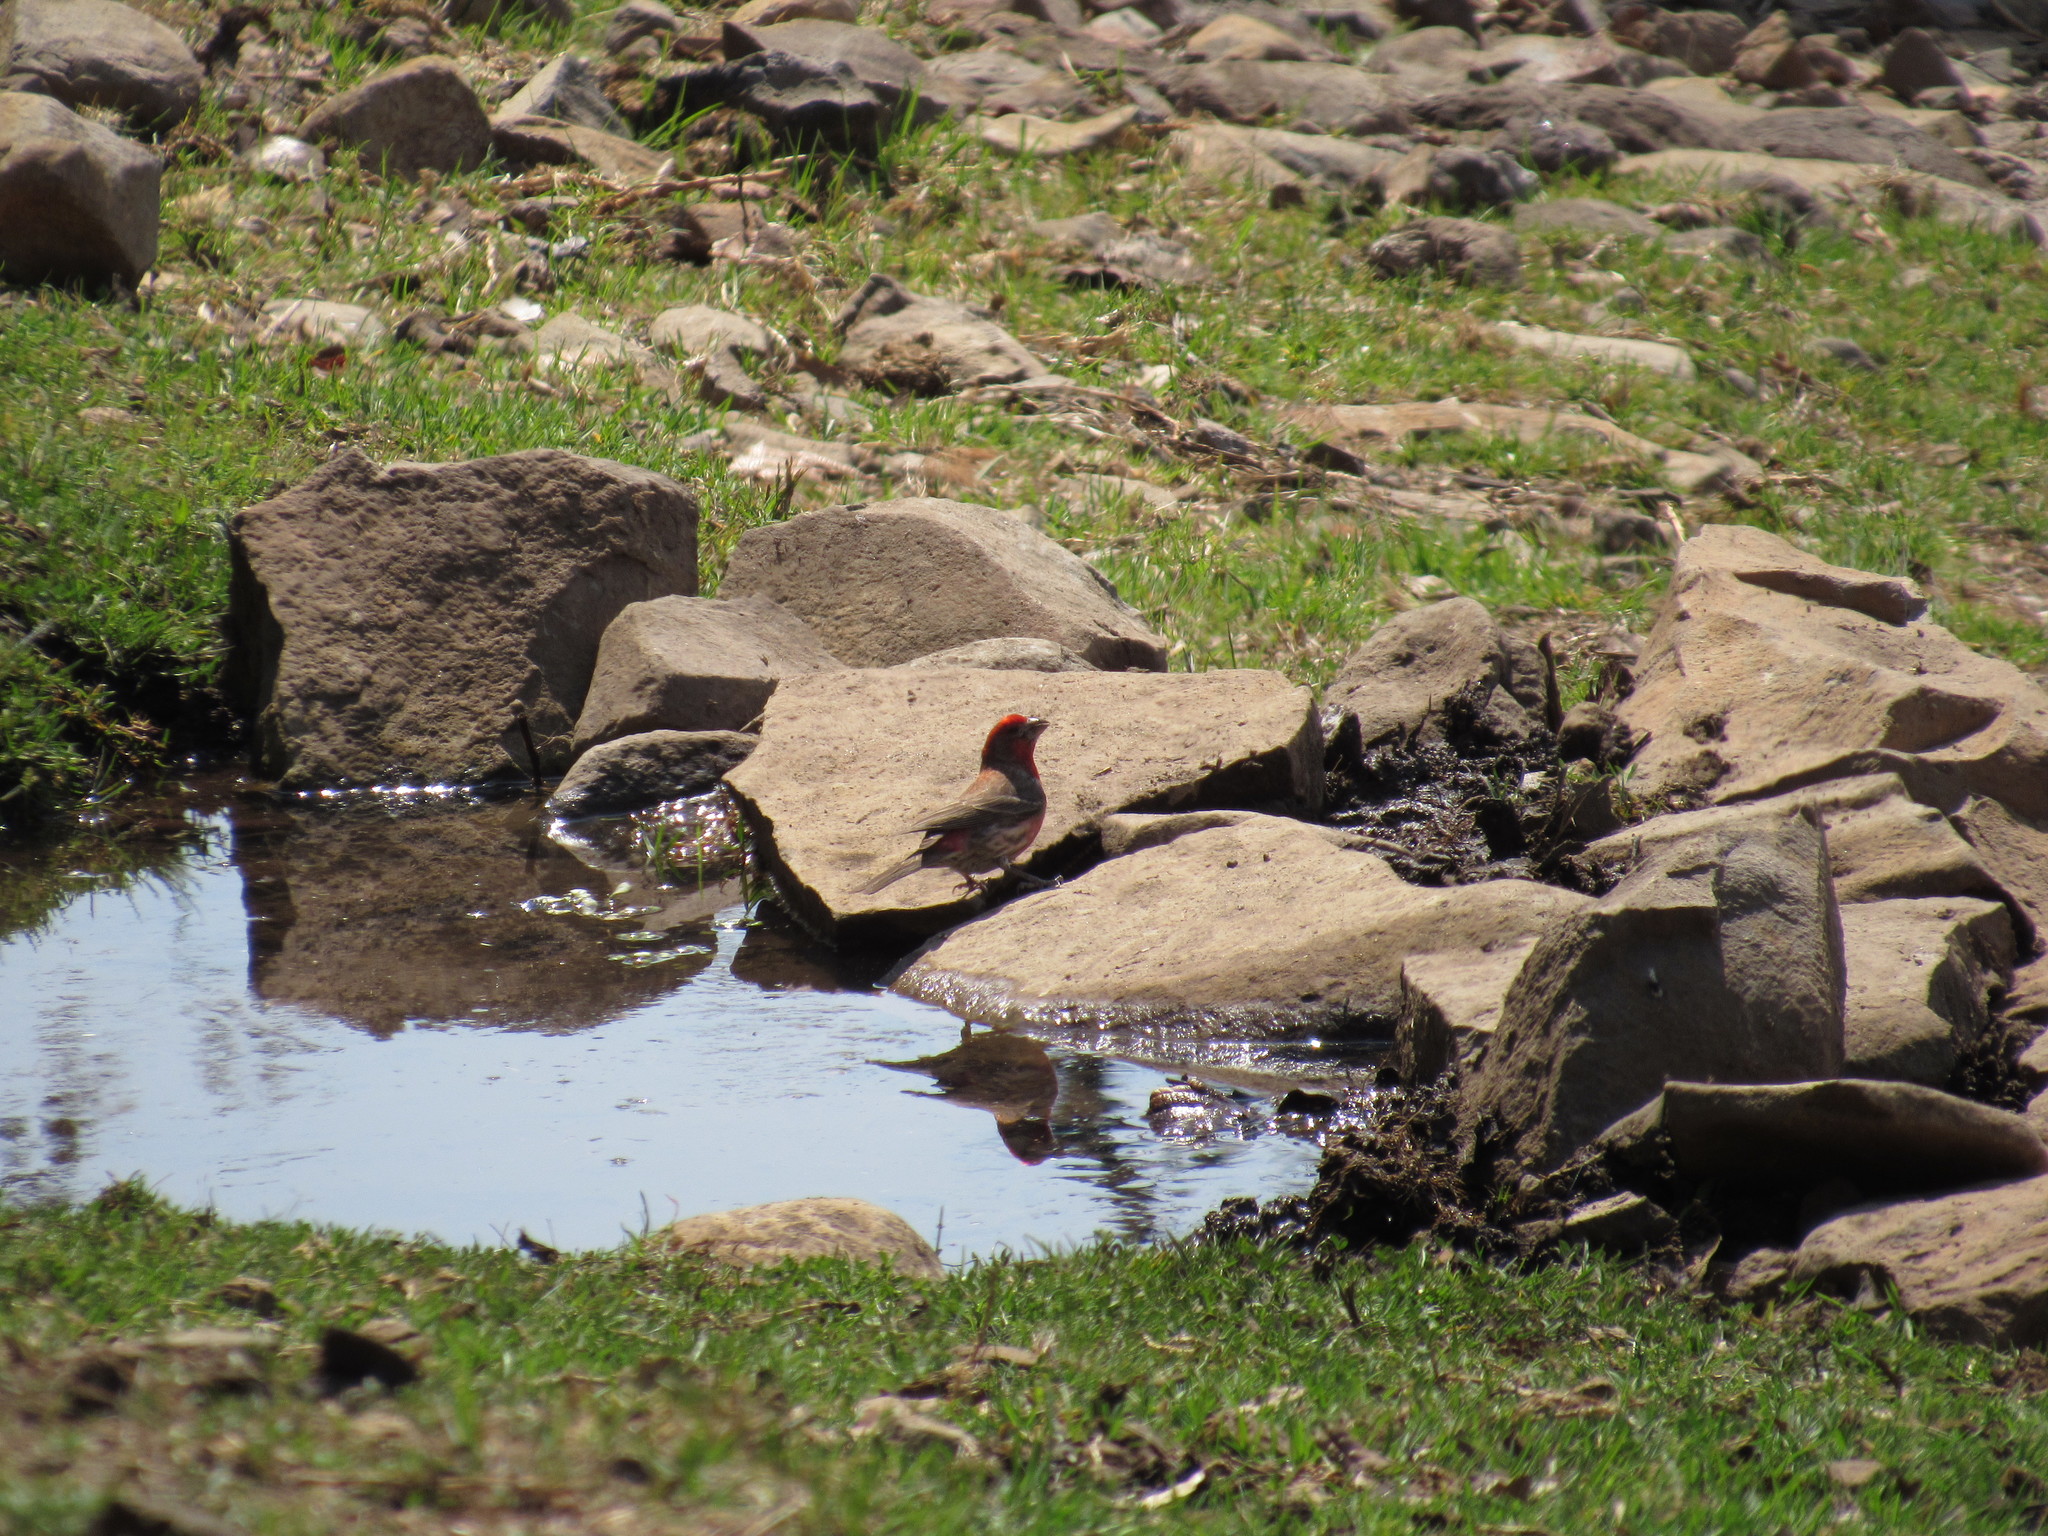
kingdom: Animalia
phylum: Chordata
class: Aves
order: Passeriformes
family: Fringillidae
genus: Haemorhous
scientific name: Haemorhous mexicanus
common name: House finch
